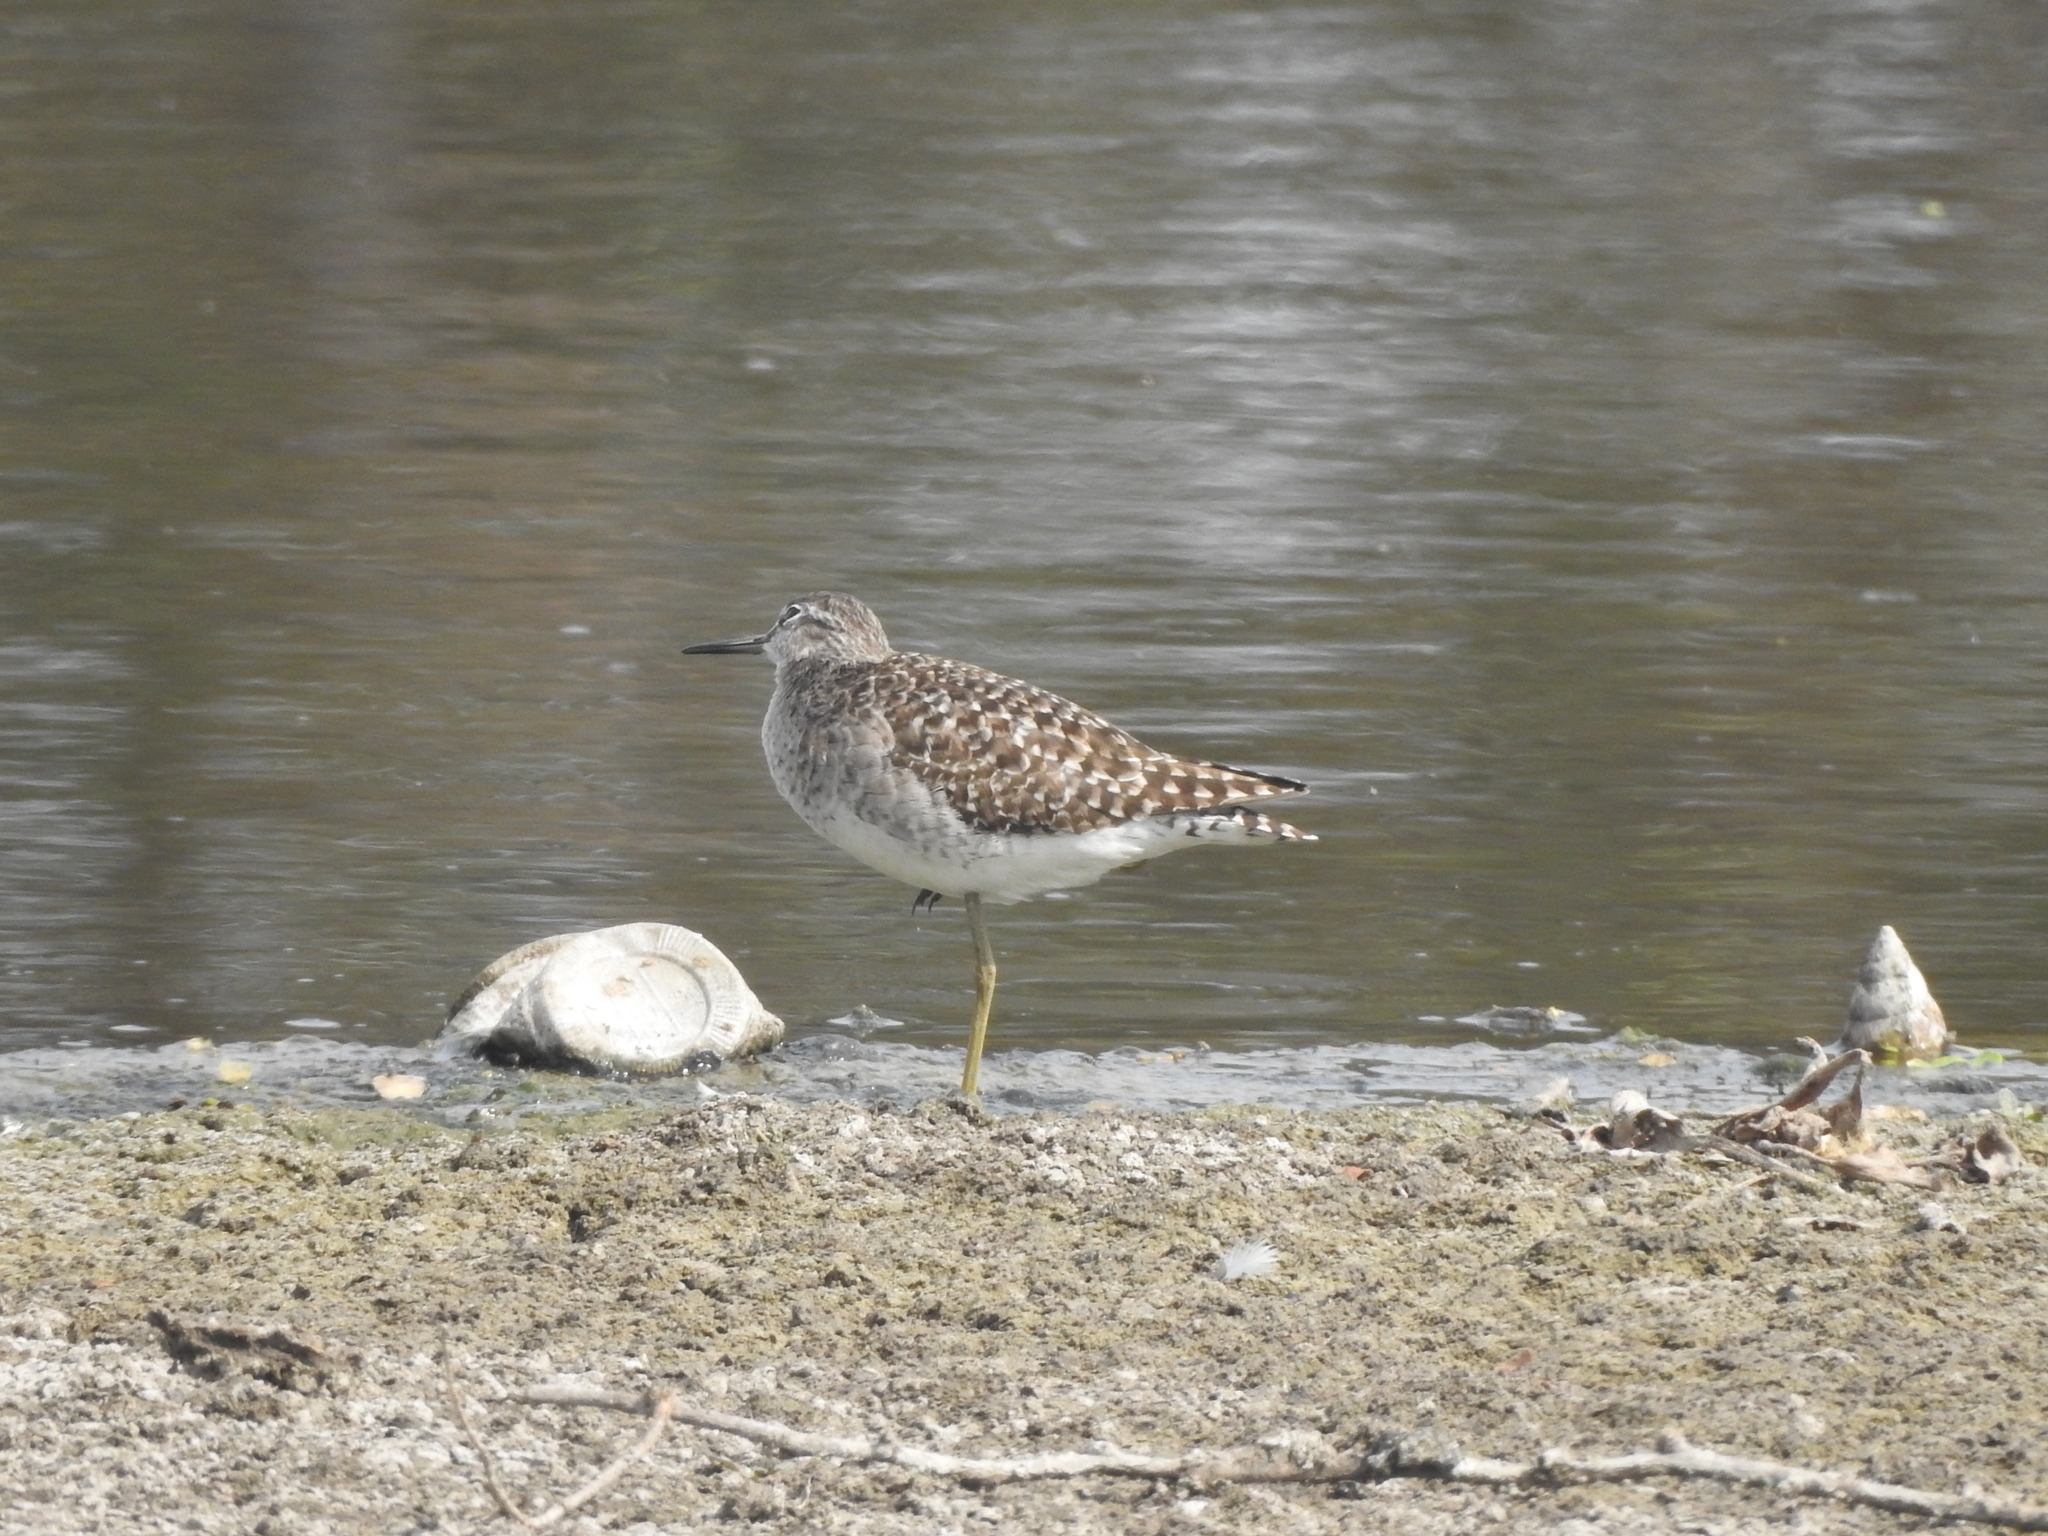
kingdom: Animalia
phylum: Chordata
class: Aves
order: Charadriiformes
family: Scolopacidae
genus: Tringa
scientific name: Tringa glareola
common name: Wood sandpiper
